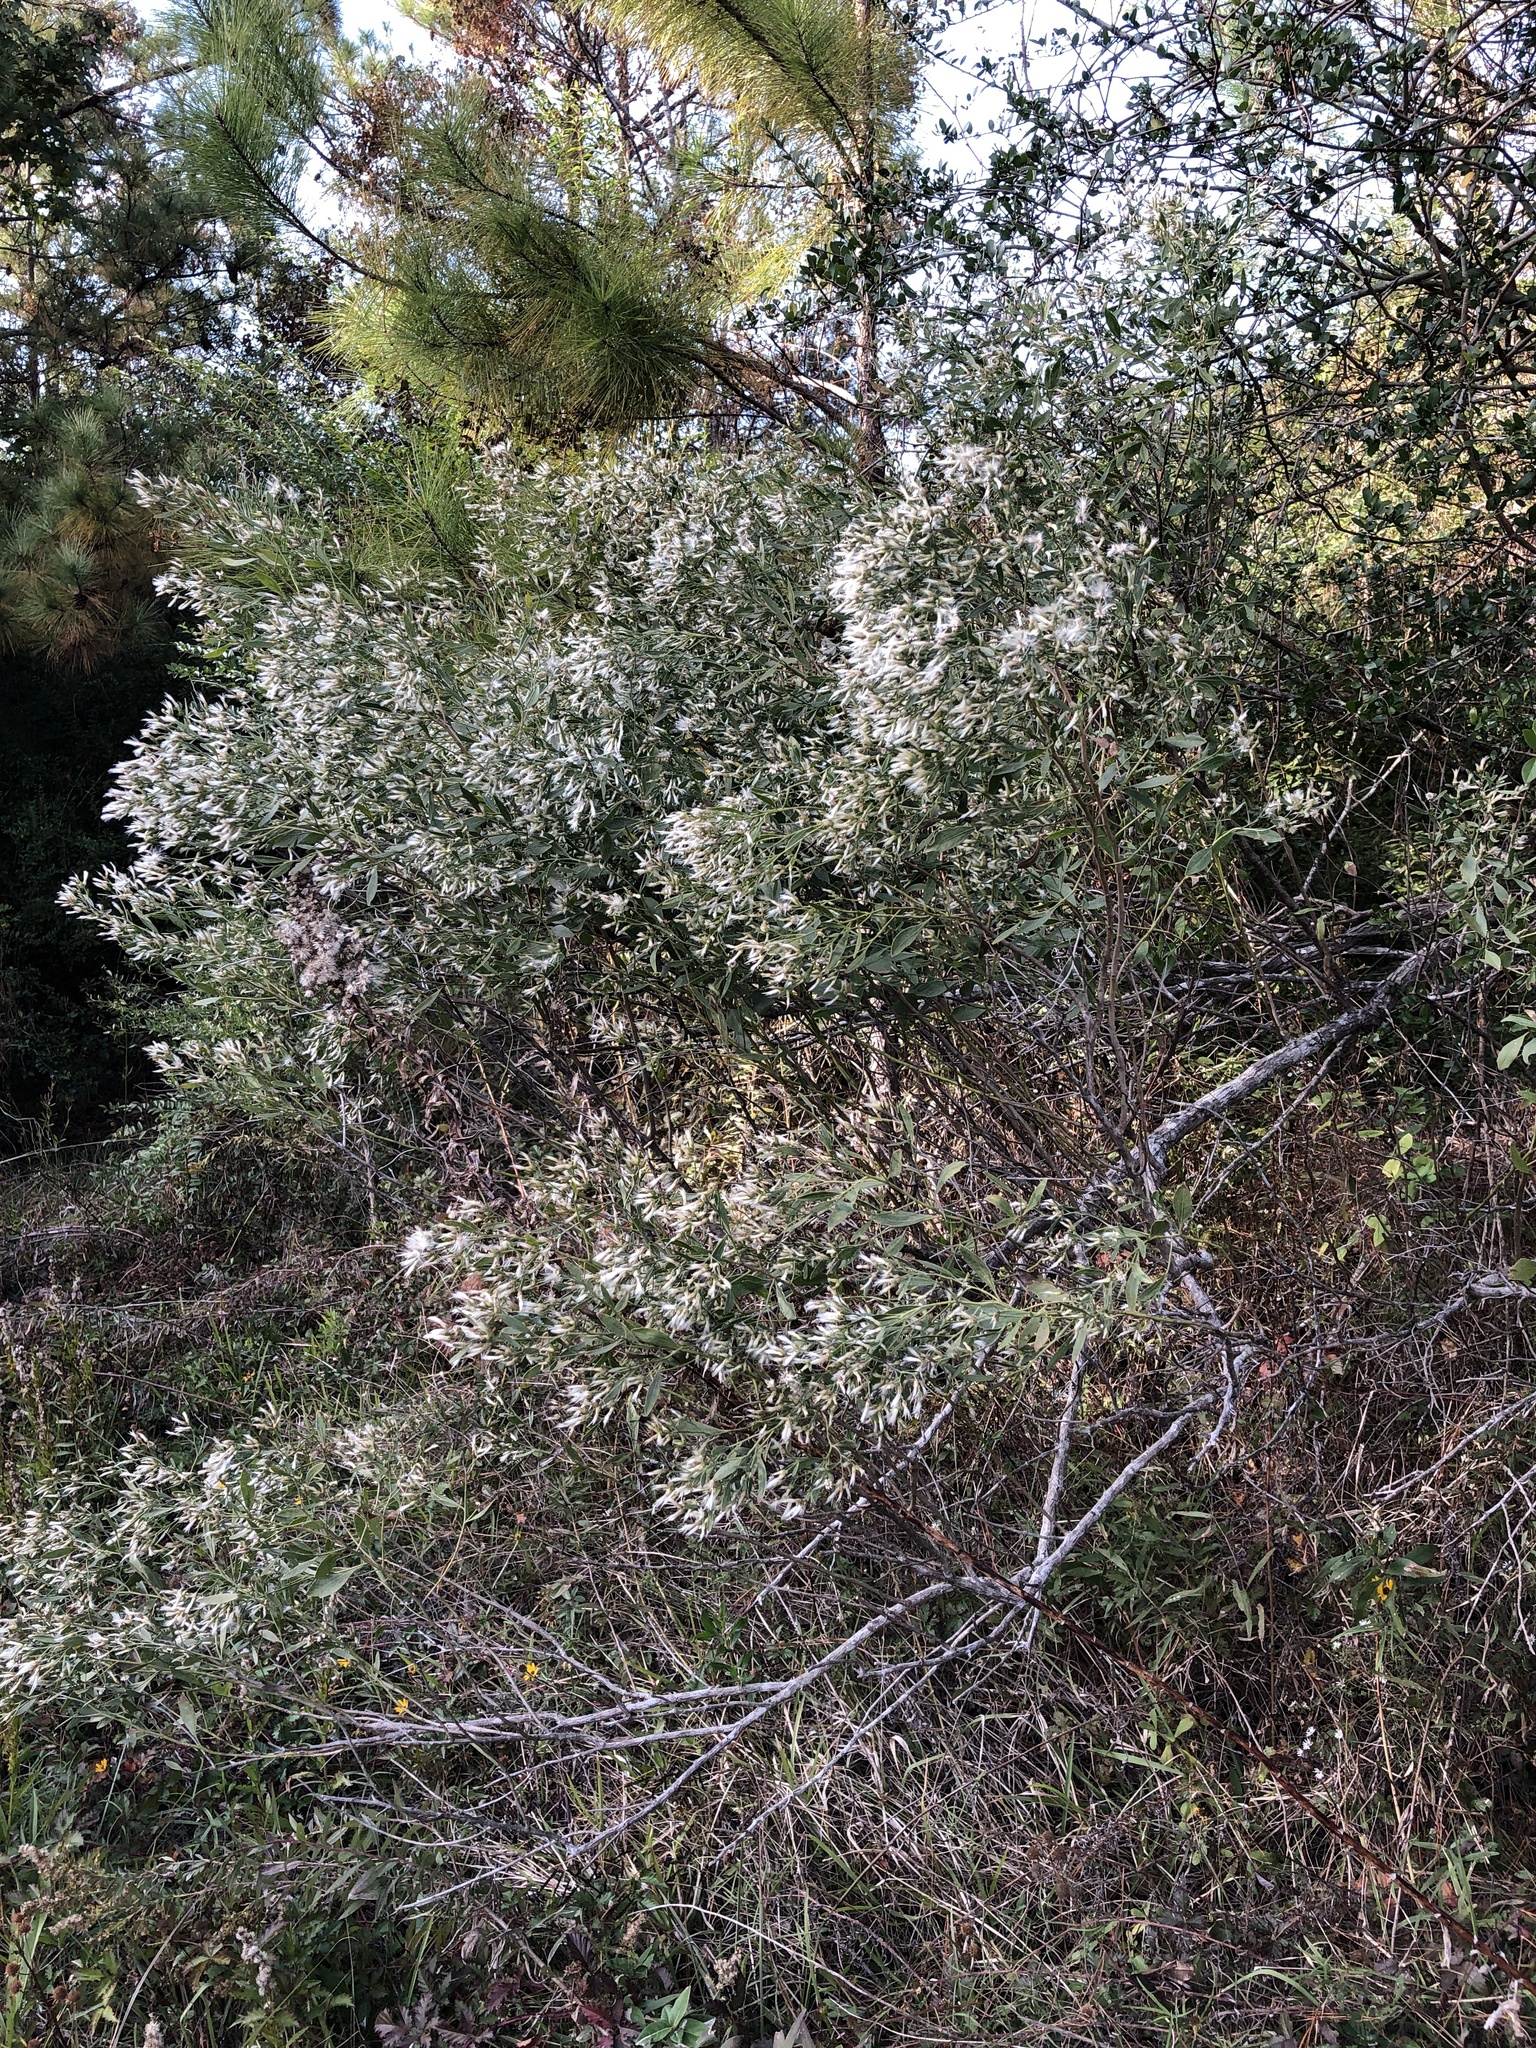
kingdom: Plantae
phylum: Tracheophyta
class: Magnoliopsida
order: Asterales
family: Asteraceae
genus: Baccharis
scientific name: Baccharis halimifolia
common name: Eastern baccharis
